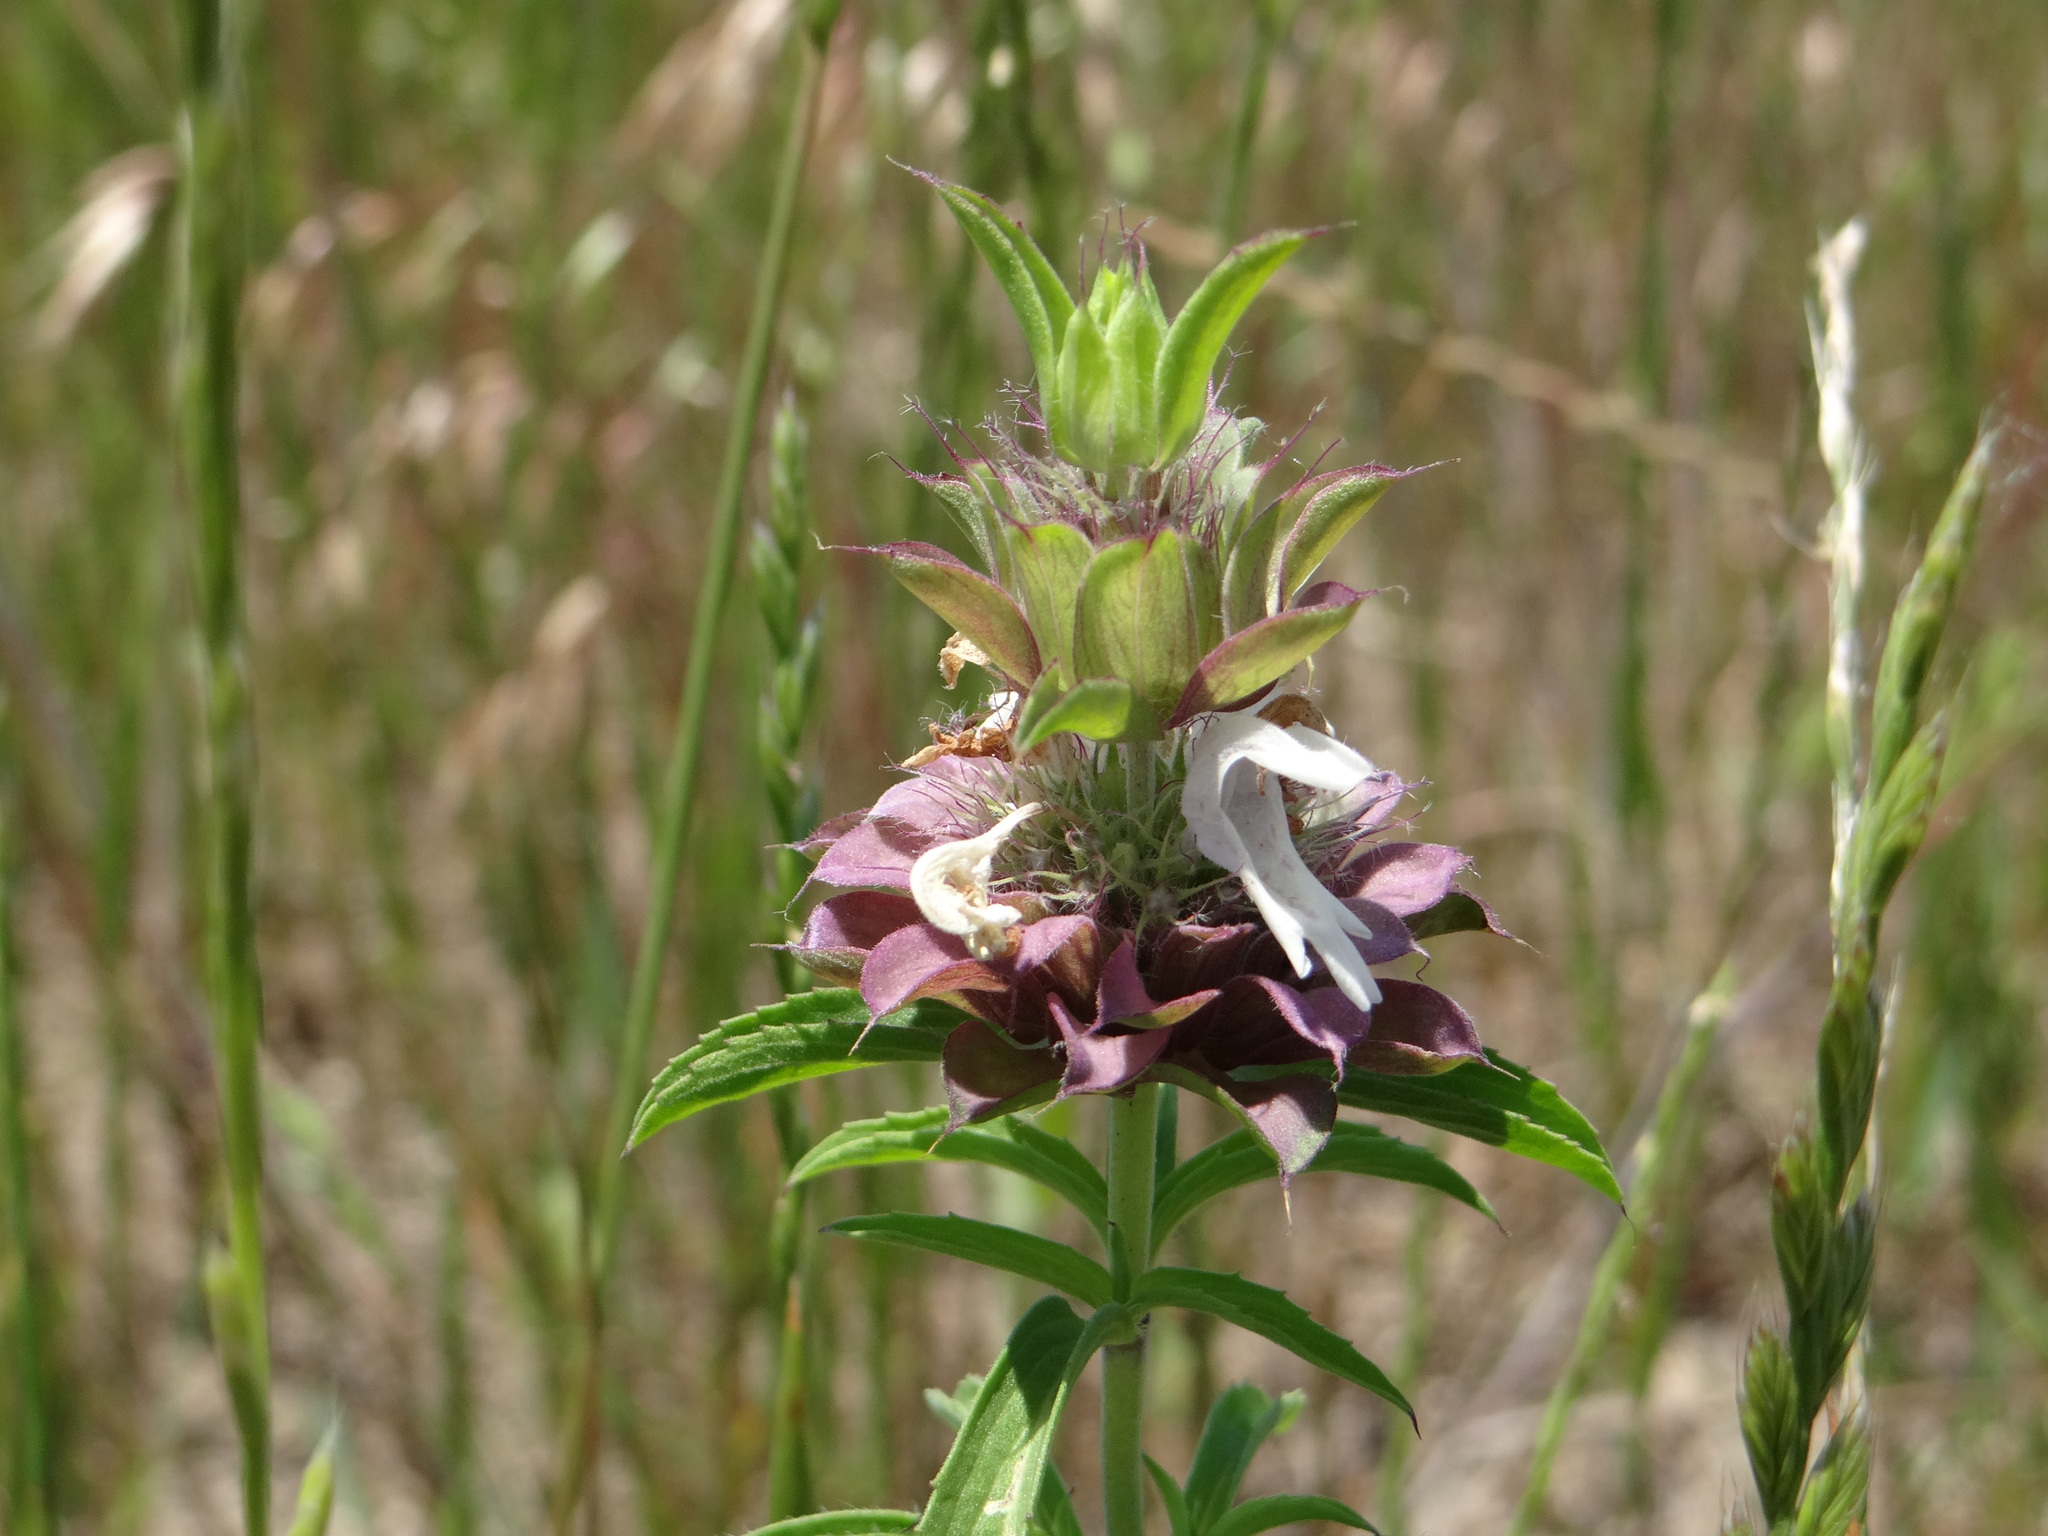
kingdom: Plantae
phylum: Tracheophyta
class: Magnoliopsida
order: Lamiales
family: Lamiaceae
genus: Monarda
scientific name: Monarda citriodora
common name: Lemon beebalm
